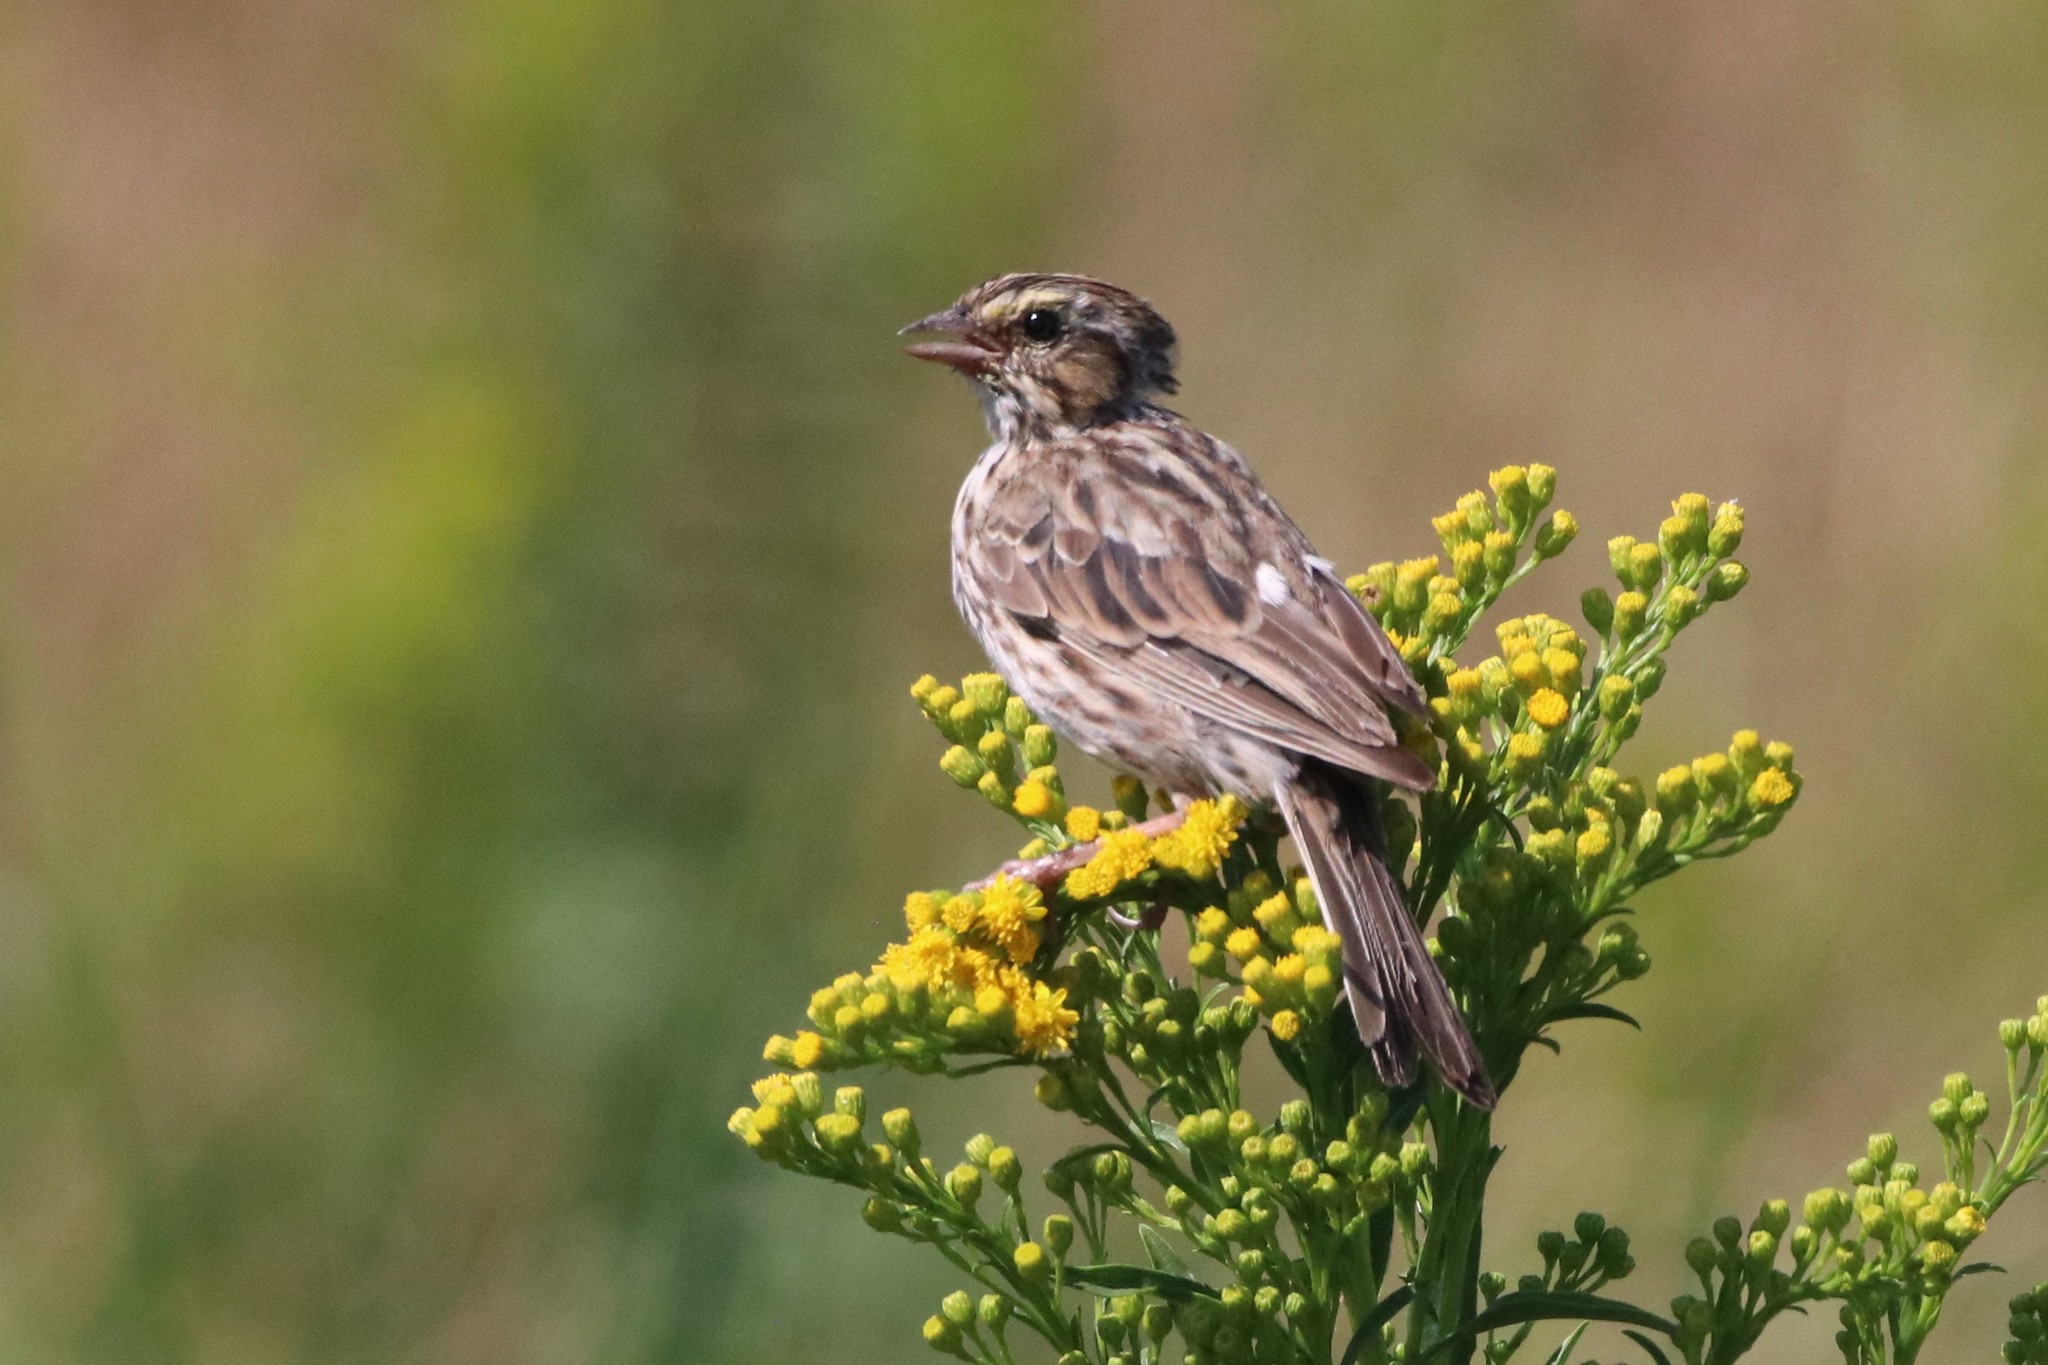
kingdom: Animalia
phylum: Chordata
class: Aves
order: Passeriformes
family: Passerellidae
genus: Passerculus
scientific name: Passerculus sandwichensis
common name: Savannah sparrow
